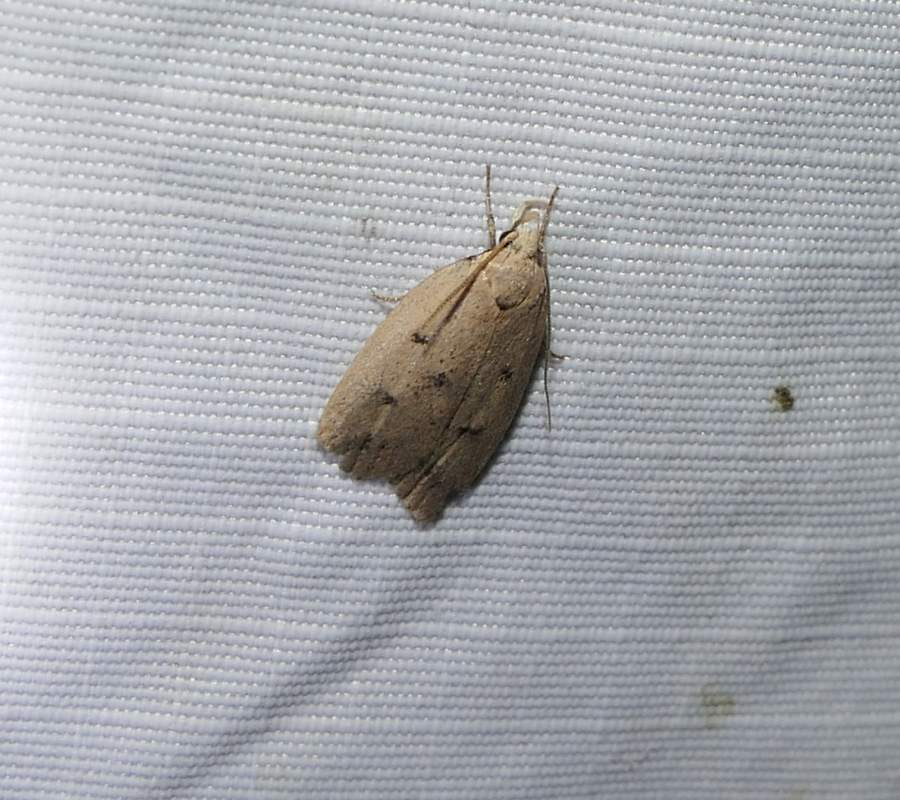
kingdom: Animalia
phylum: Arthropoda
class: Insecta
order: Lepidoptera
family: Peleopodidae
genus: Machimia
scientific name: Machimia tentoriferella
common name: Gold-striped leaftier moth
